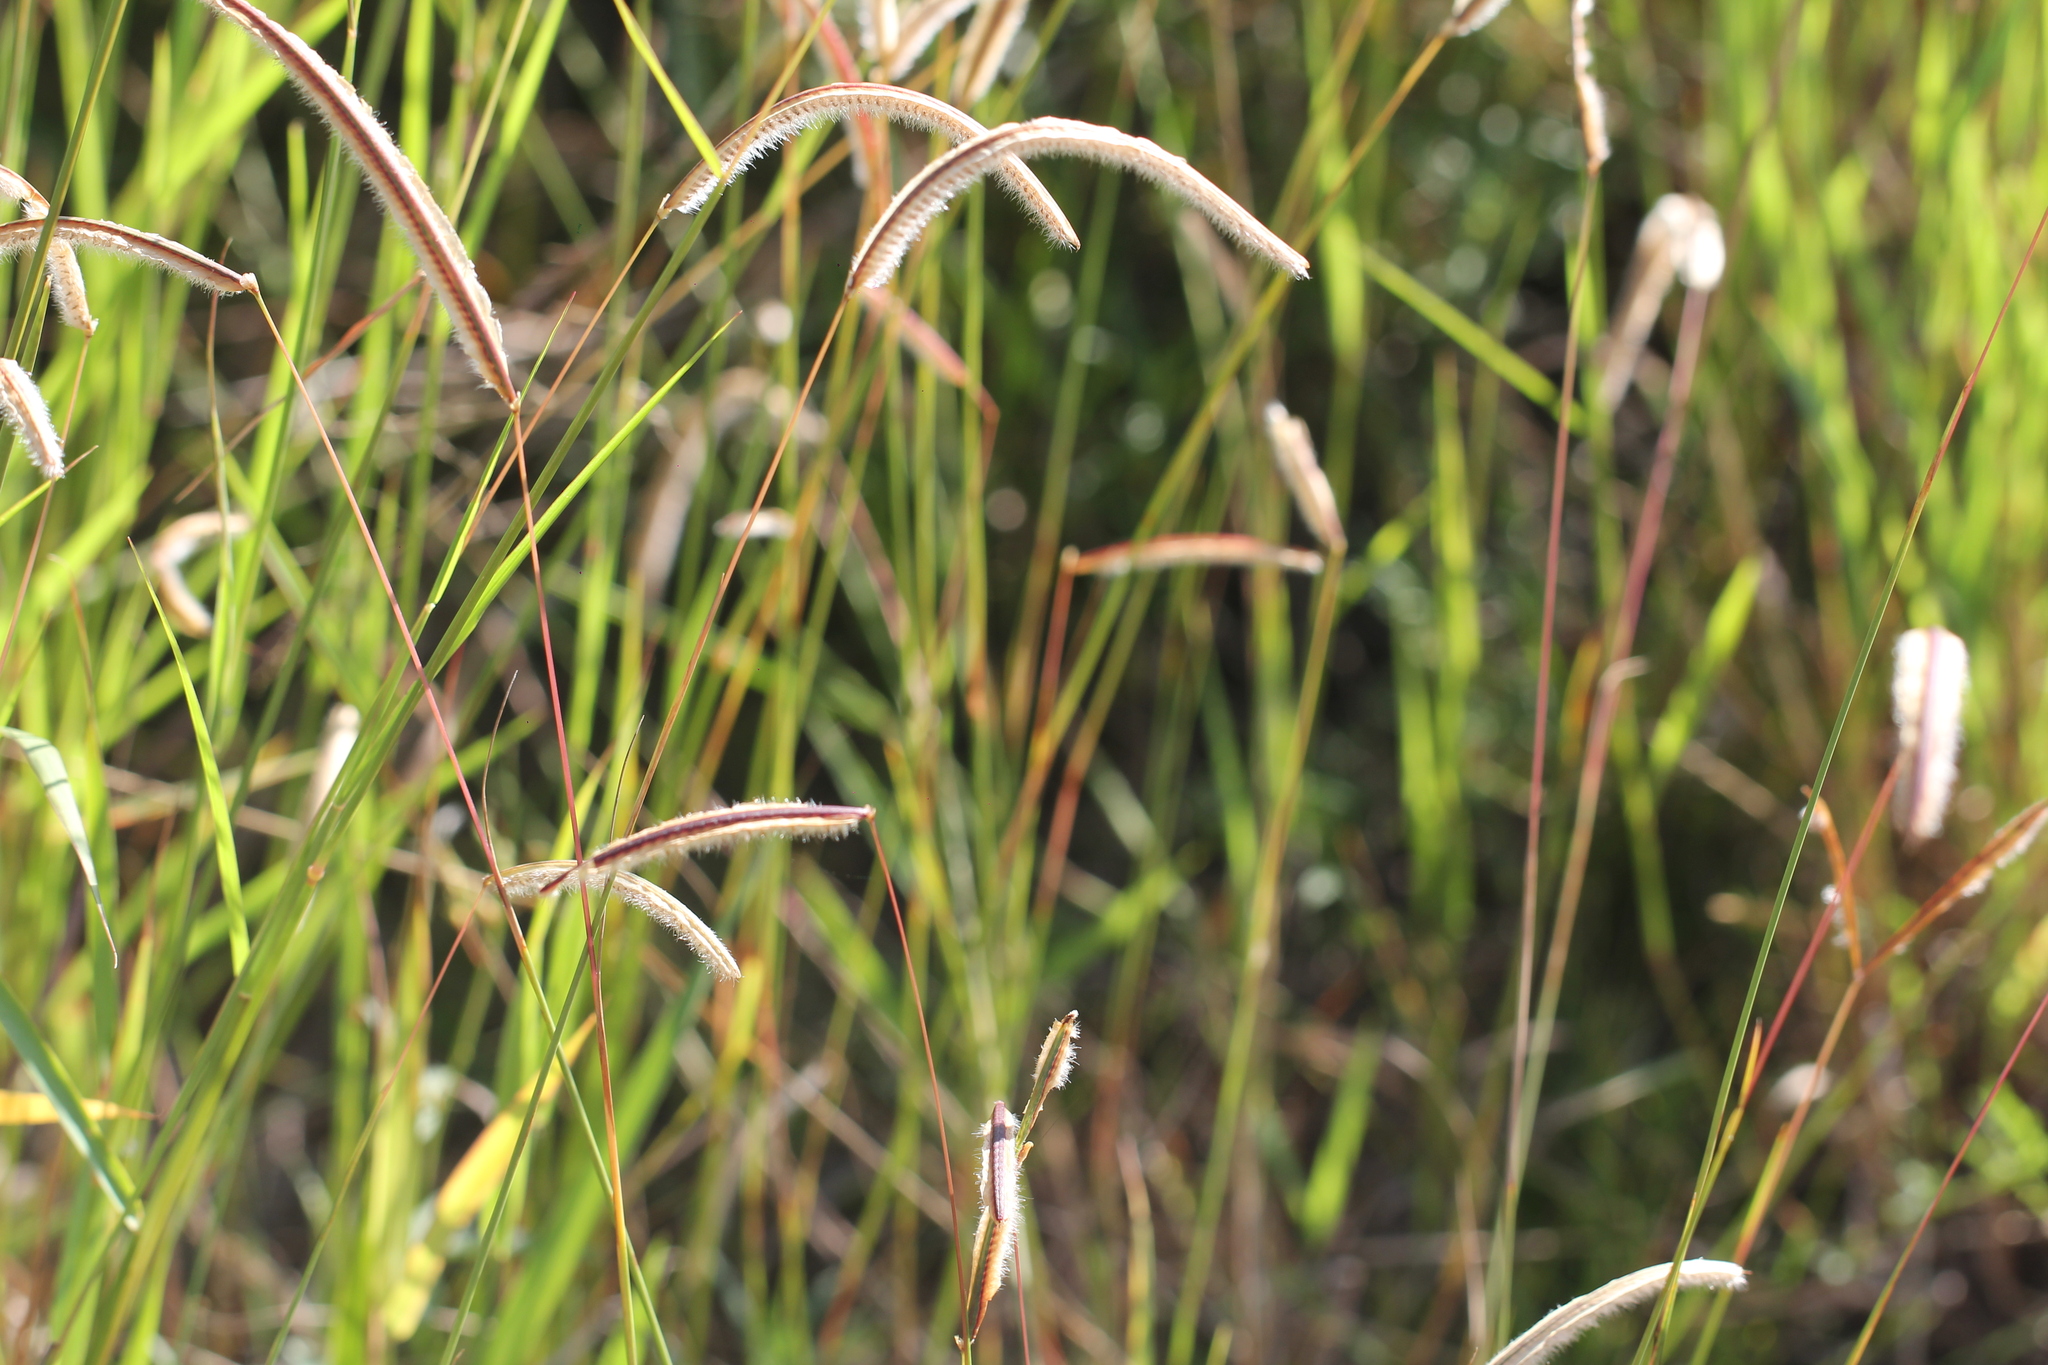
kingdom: Plantae
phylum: Tracheophyta
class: Liliopsida
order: Poales
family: Poaceae
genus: Paspalum
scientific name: Paspalum stellatum
